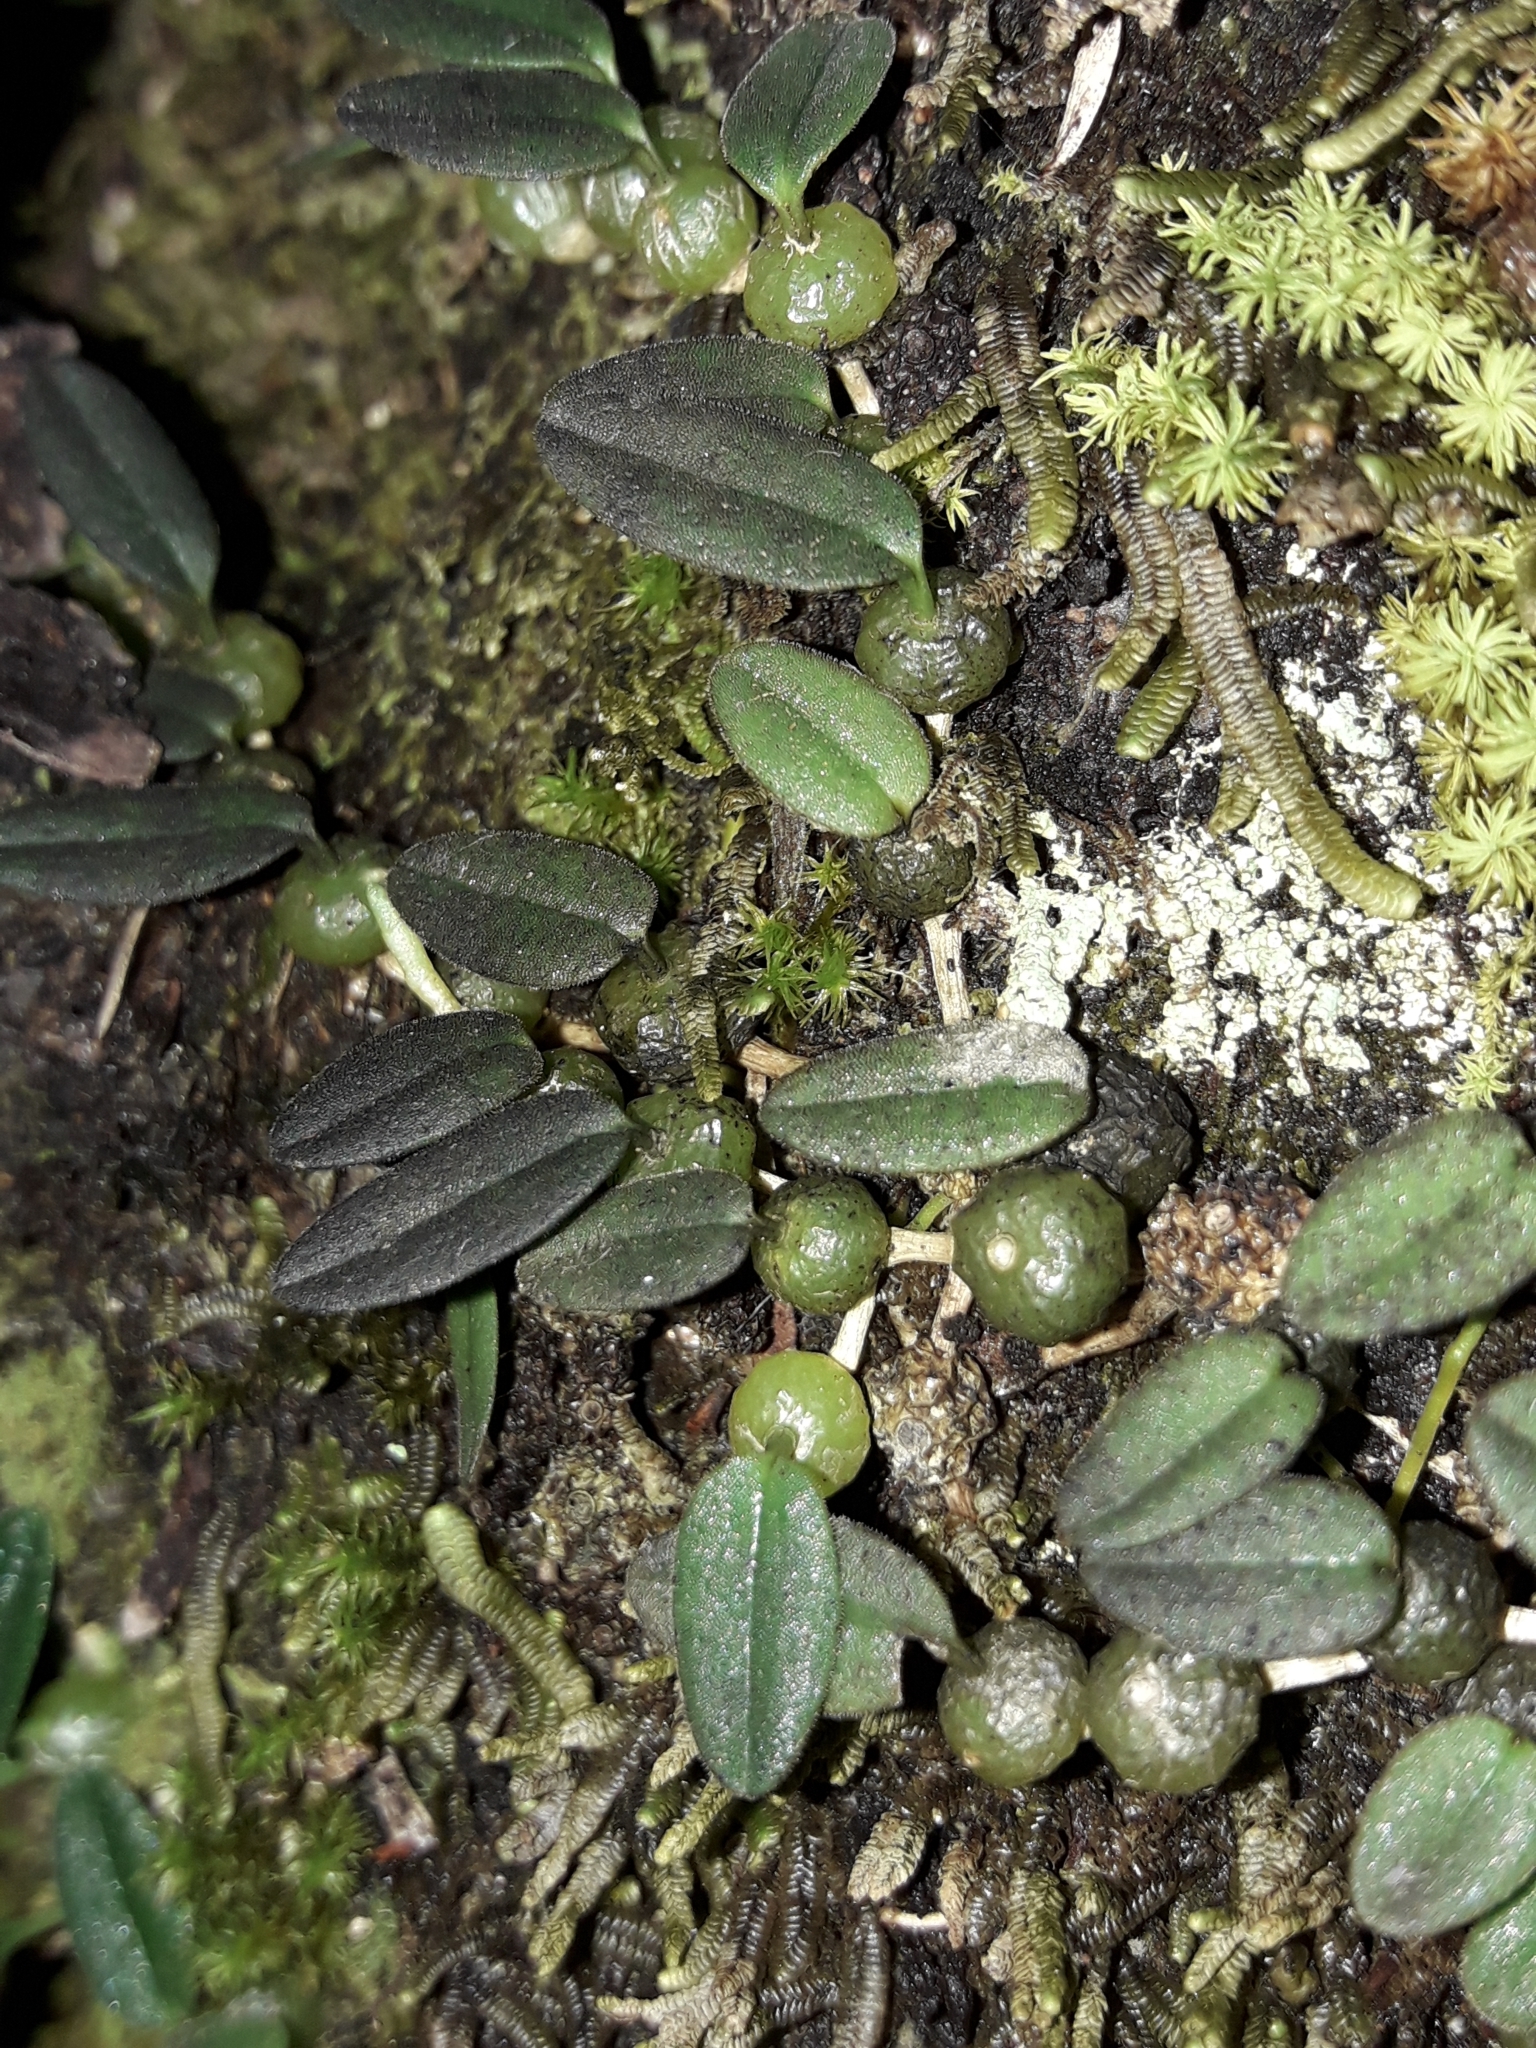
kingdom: Plantae
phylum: Tracheophyta
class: Liliopsida
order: Asparagales
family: Orchidaceae
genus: Bulbophyllum
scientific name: Bulbophyllum pygmaeum
